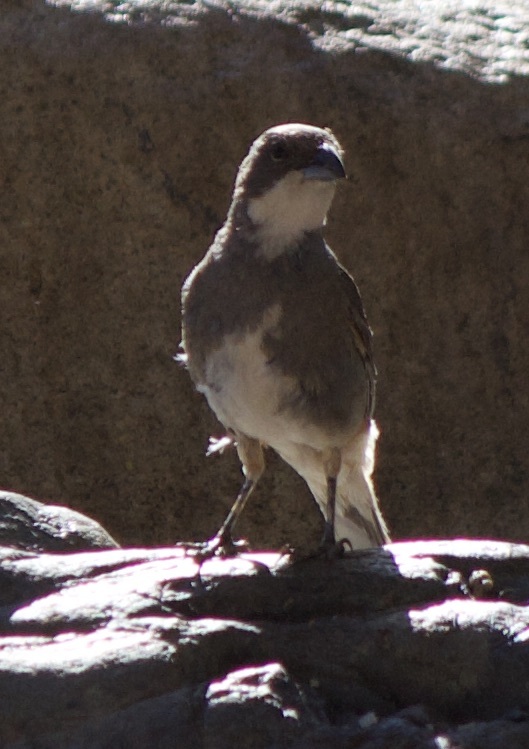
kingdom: Animalia
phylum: Chordata
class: Aves
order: Passeriformes
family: Thraupidae
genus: Diuca
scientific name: Diuca diuca
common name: Common diuca finch
